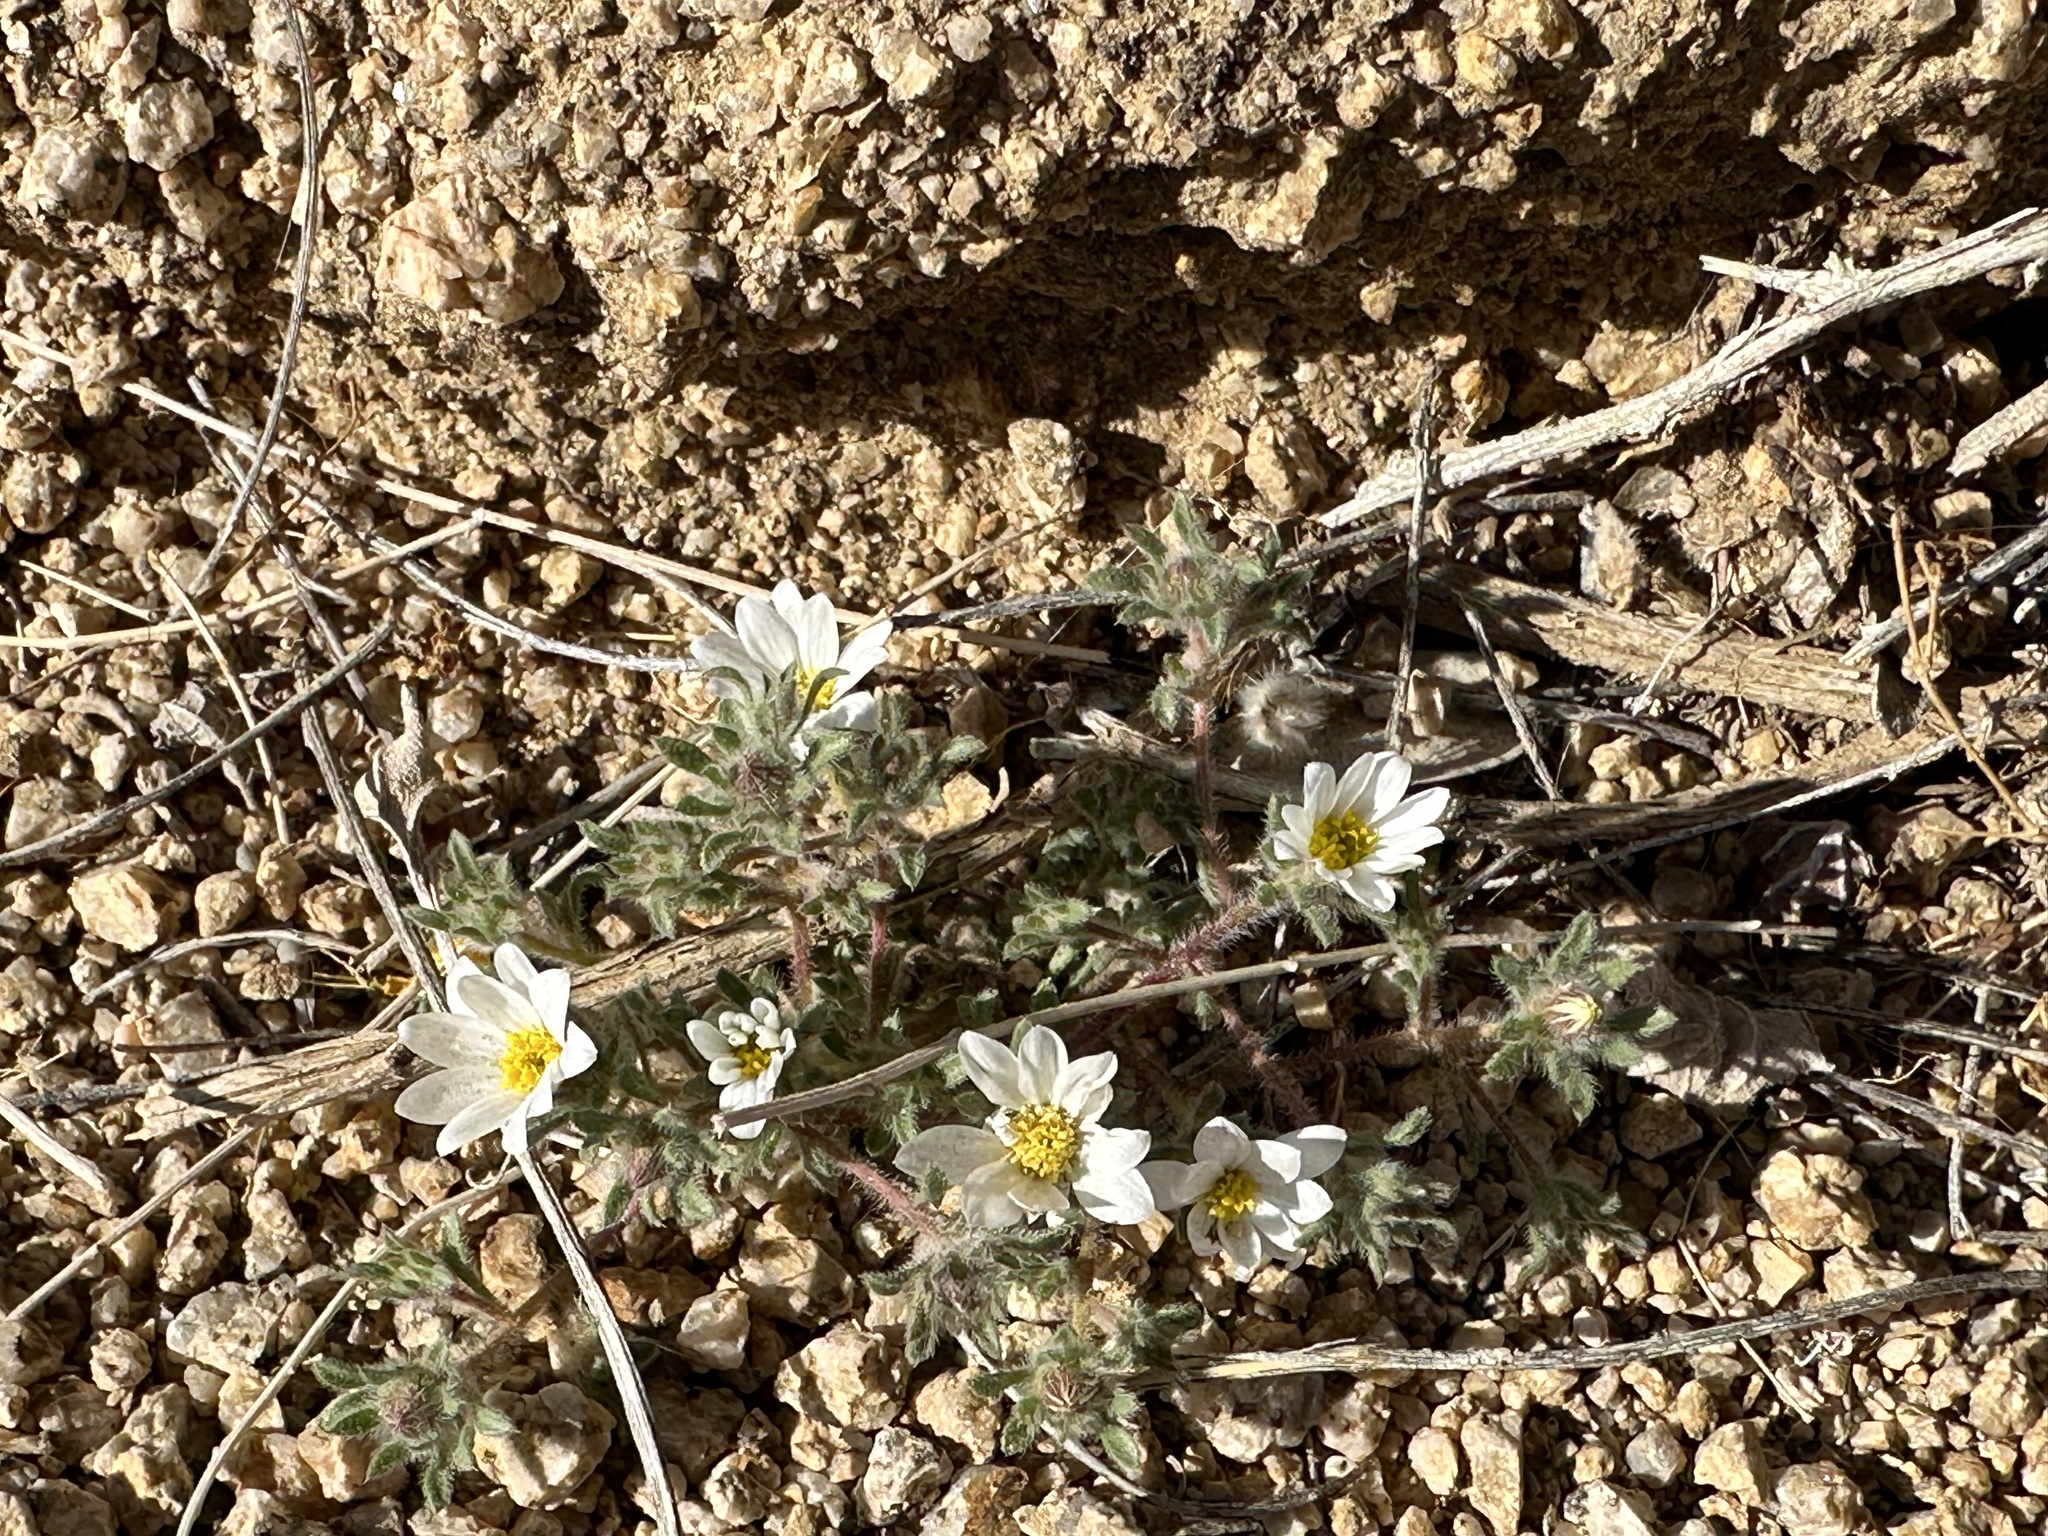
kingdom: Plantae
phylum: Tracheophyta
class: Magnoliopsida
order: Asterales
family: Asteraceae
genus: Monoptilon
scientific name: Monoptilon bellioides
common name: Bristly desertstar
